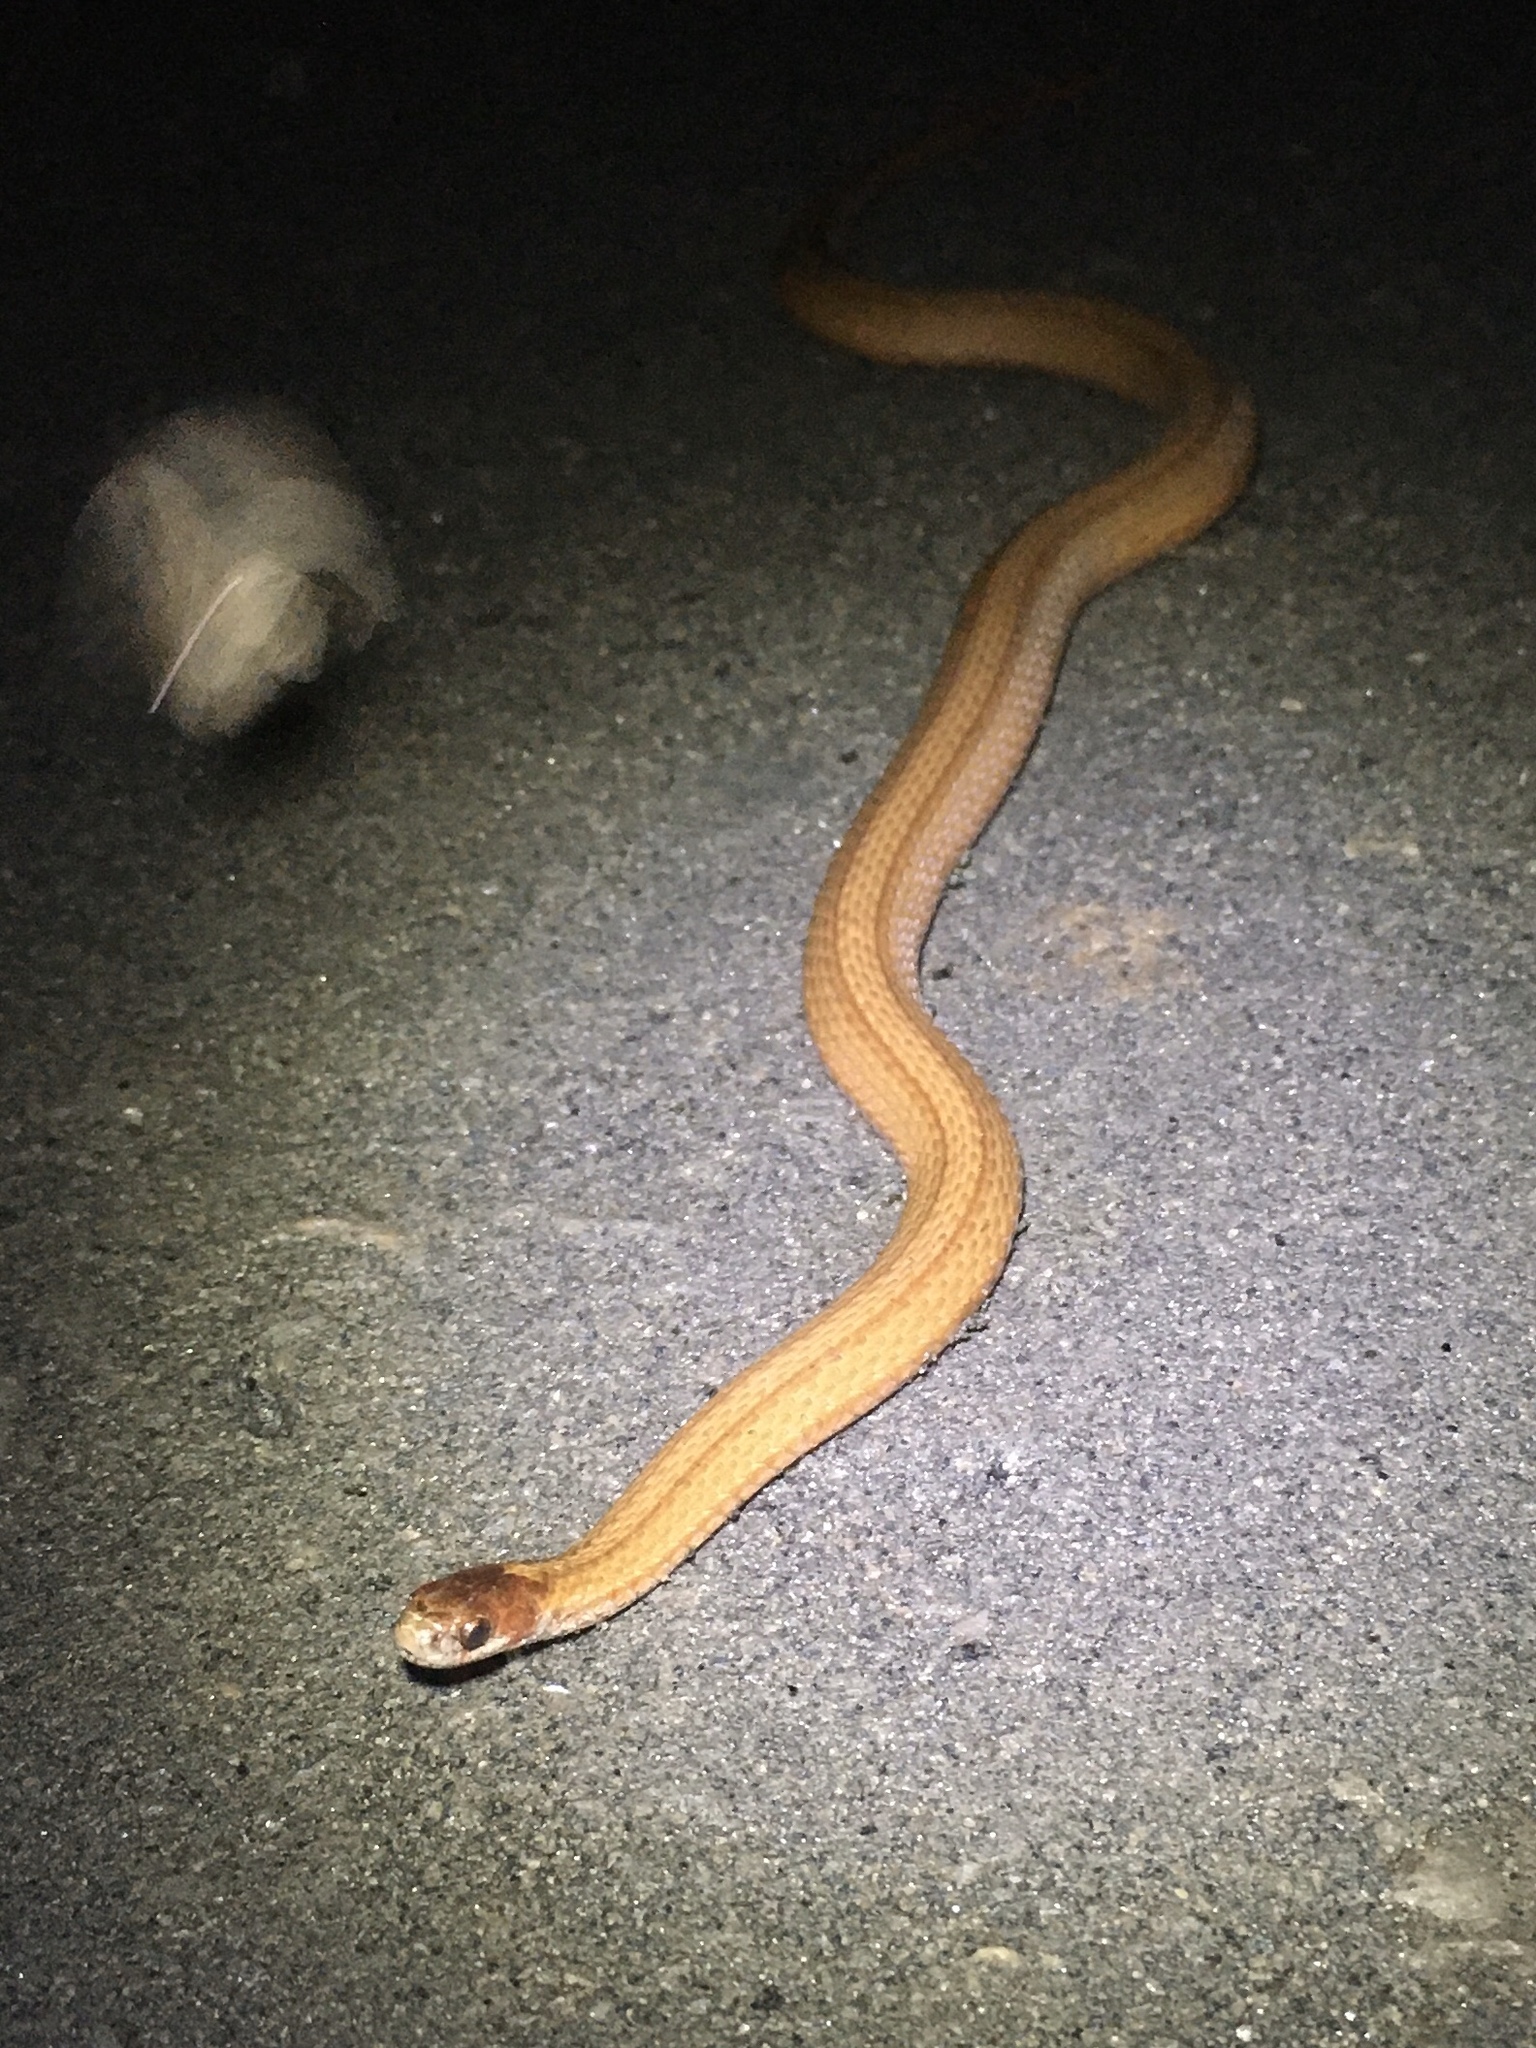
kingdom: Animalia
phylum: Chordata
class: Squamata
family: Colubridae
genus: Storeria
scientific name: Storeria occipitomaculata
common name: Redbelly snake
